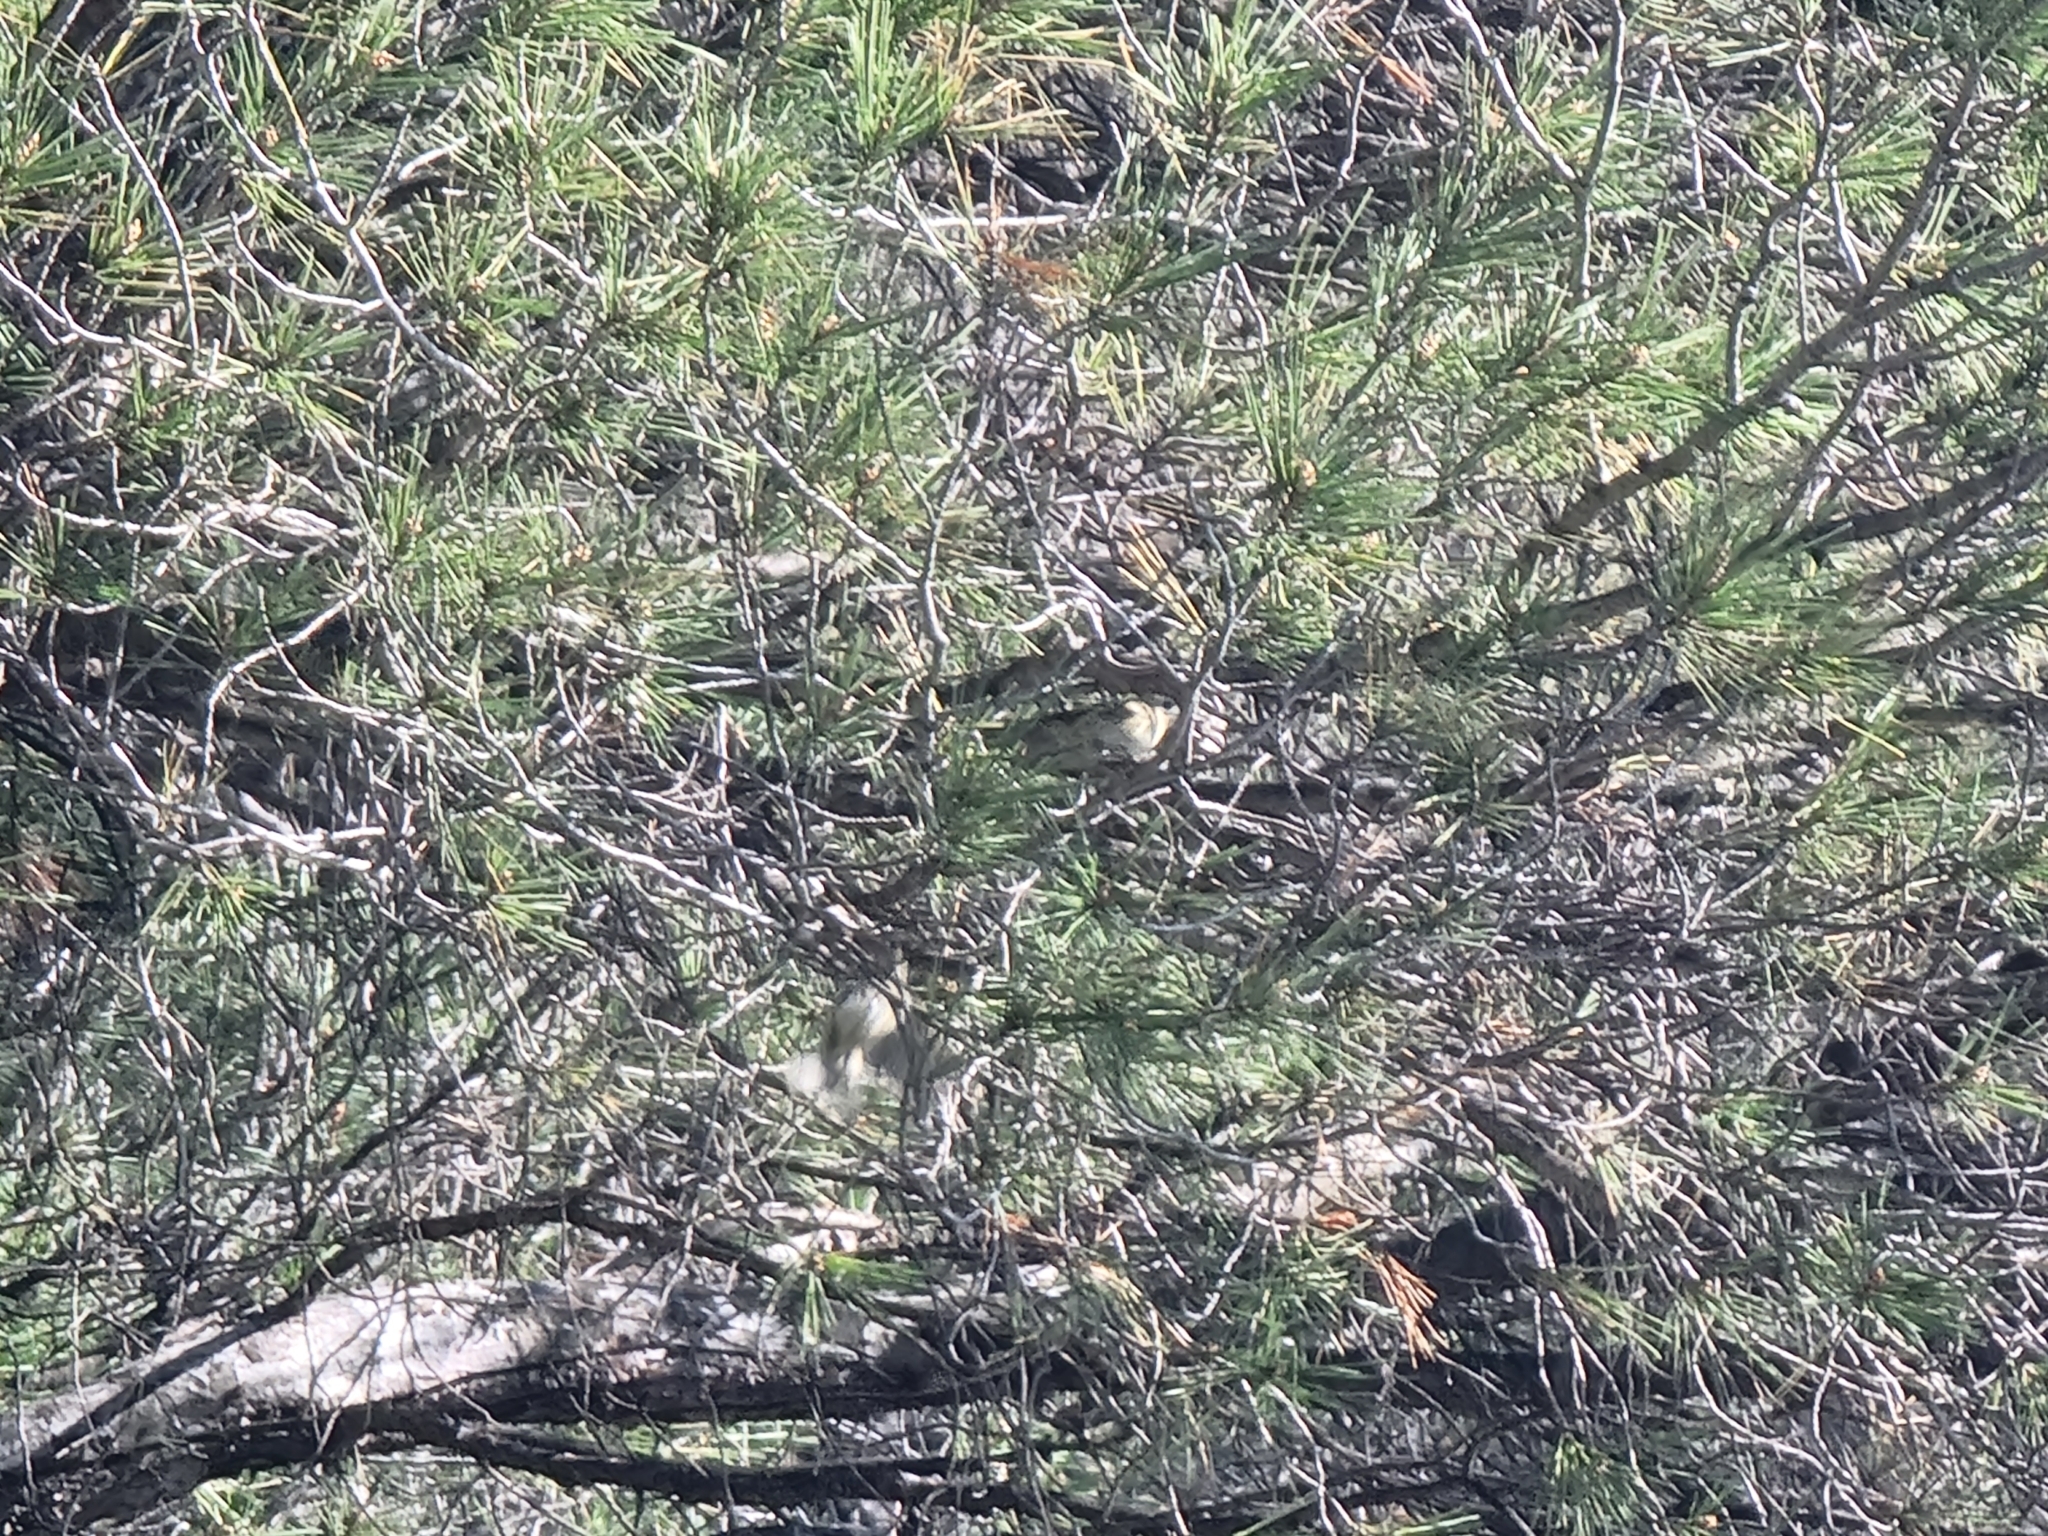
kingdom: Animalia
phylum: Chordata
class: Aves
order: Passeriformes
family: Regulidae
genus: Regulus
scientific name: Regulus ignicapilla
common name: Firecrest
